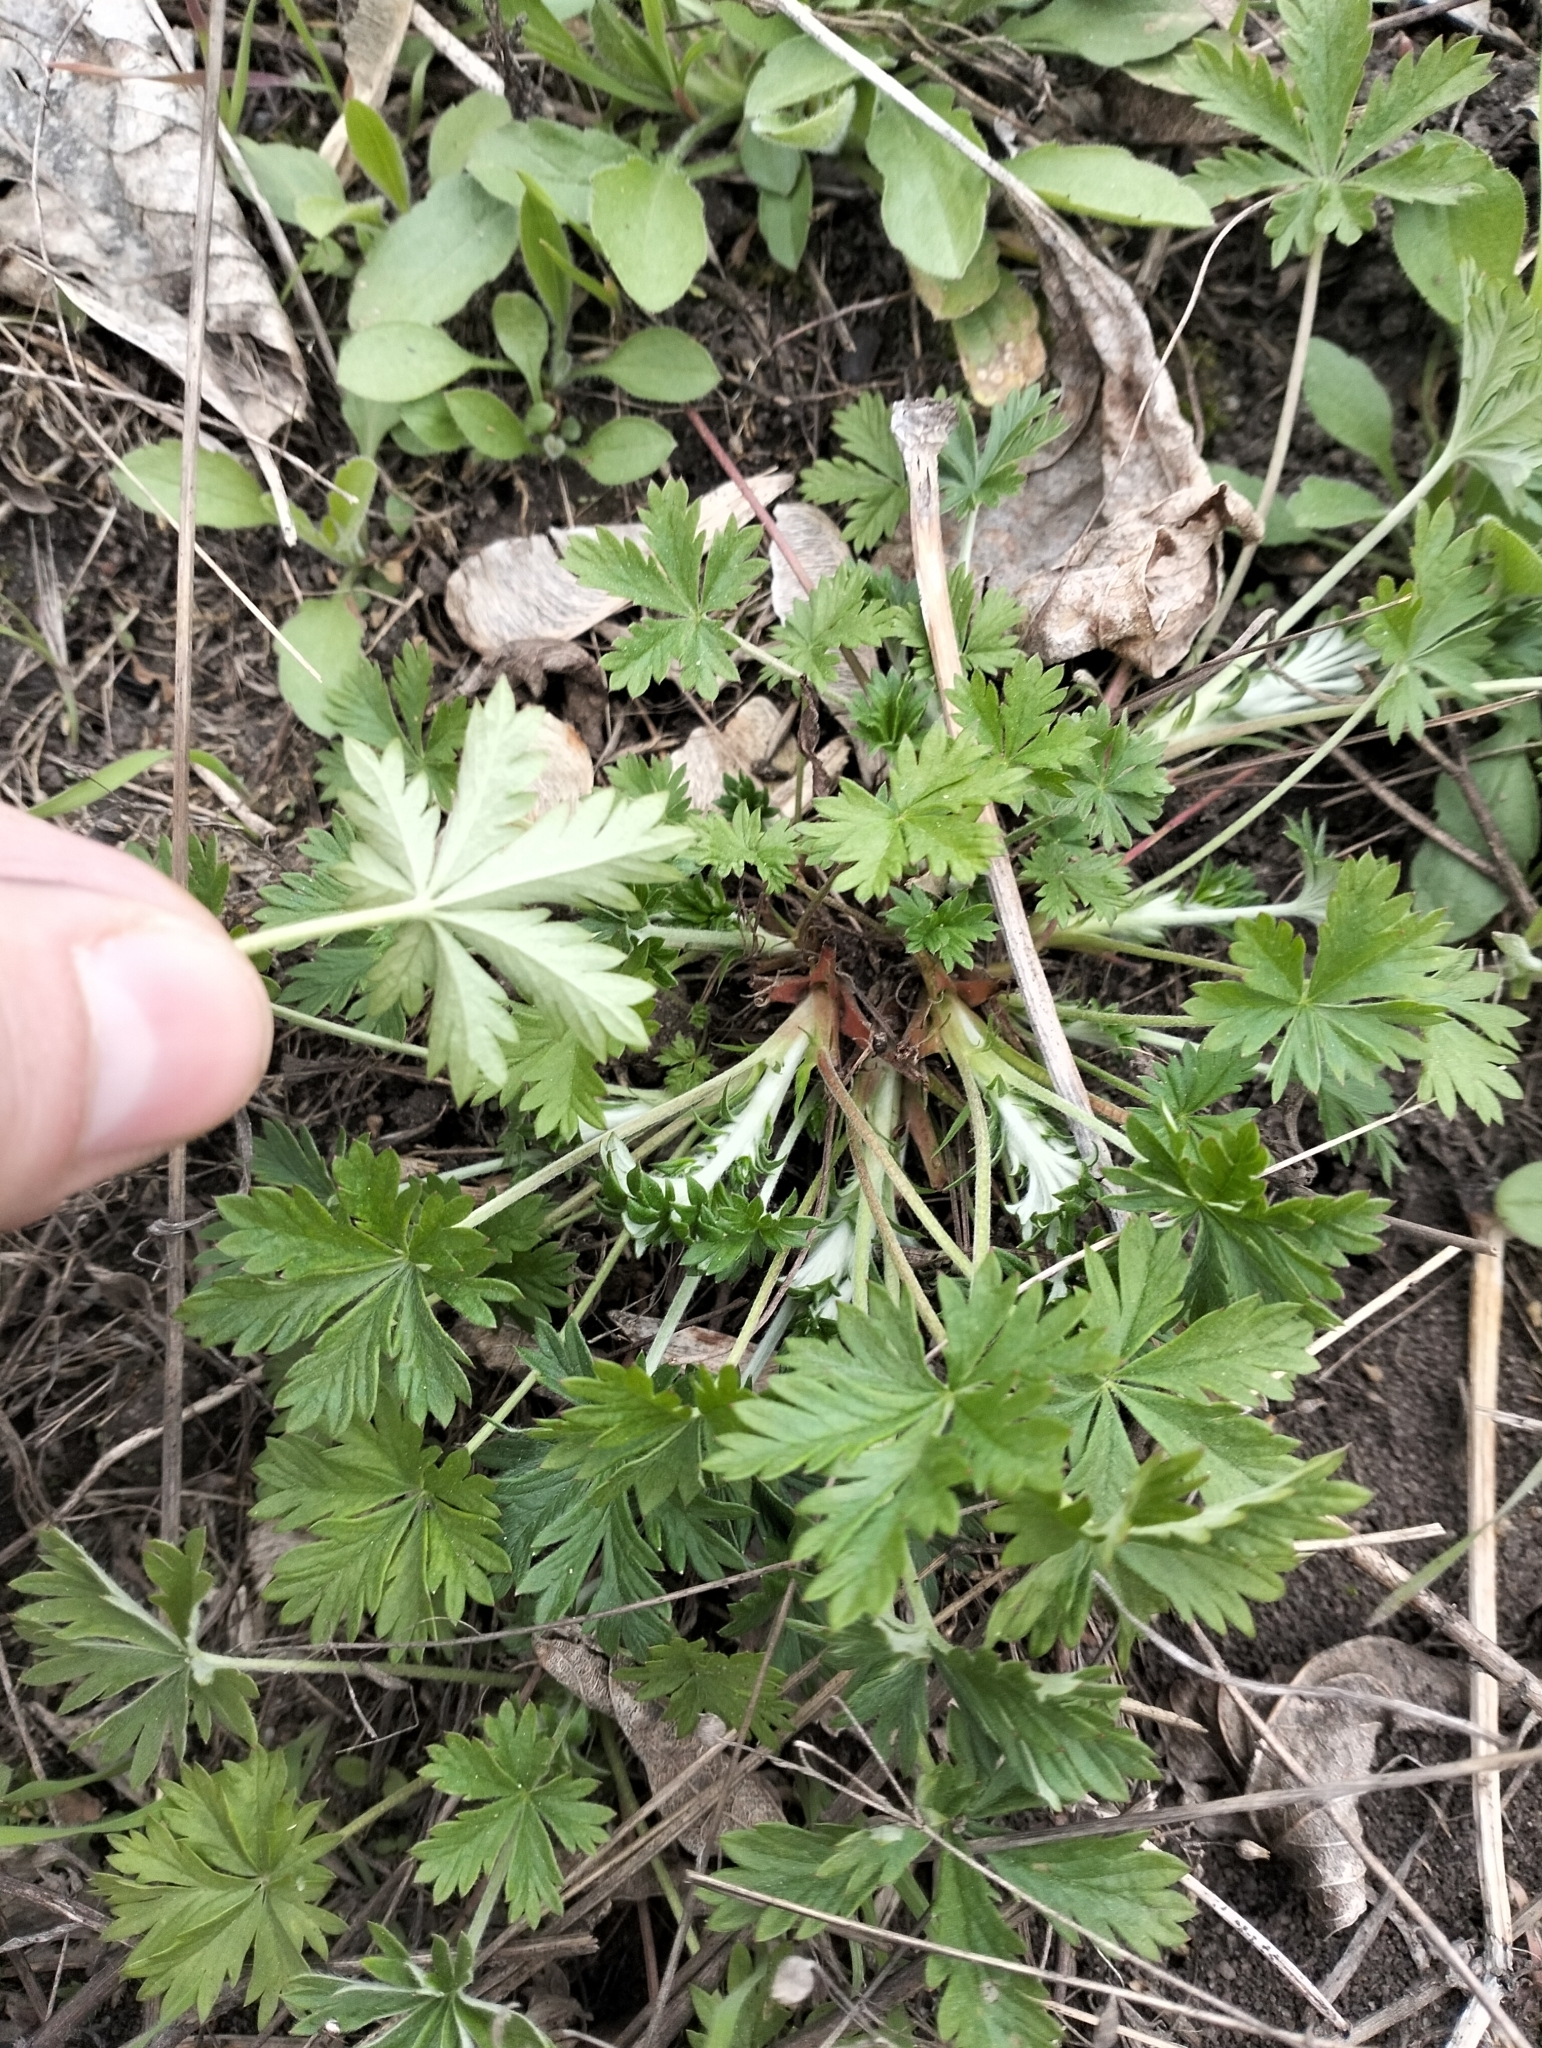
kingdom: Plantae
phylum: Tracheophyta
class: Magnoliopsida
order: Rosales
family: Rosaceae
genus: Potentilla
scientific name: Potentilla argentea
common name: Hoary cinquefoil
